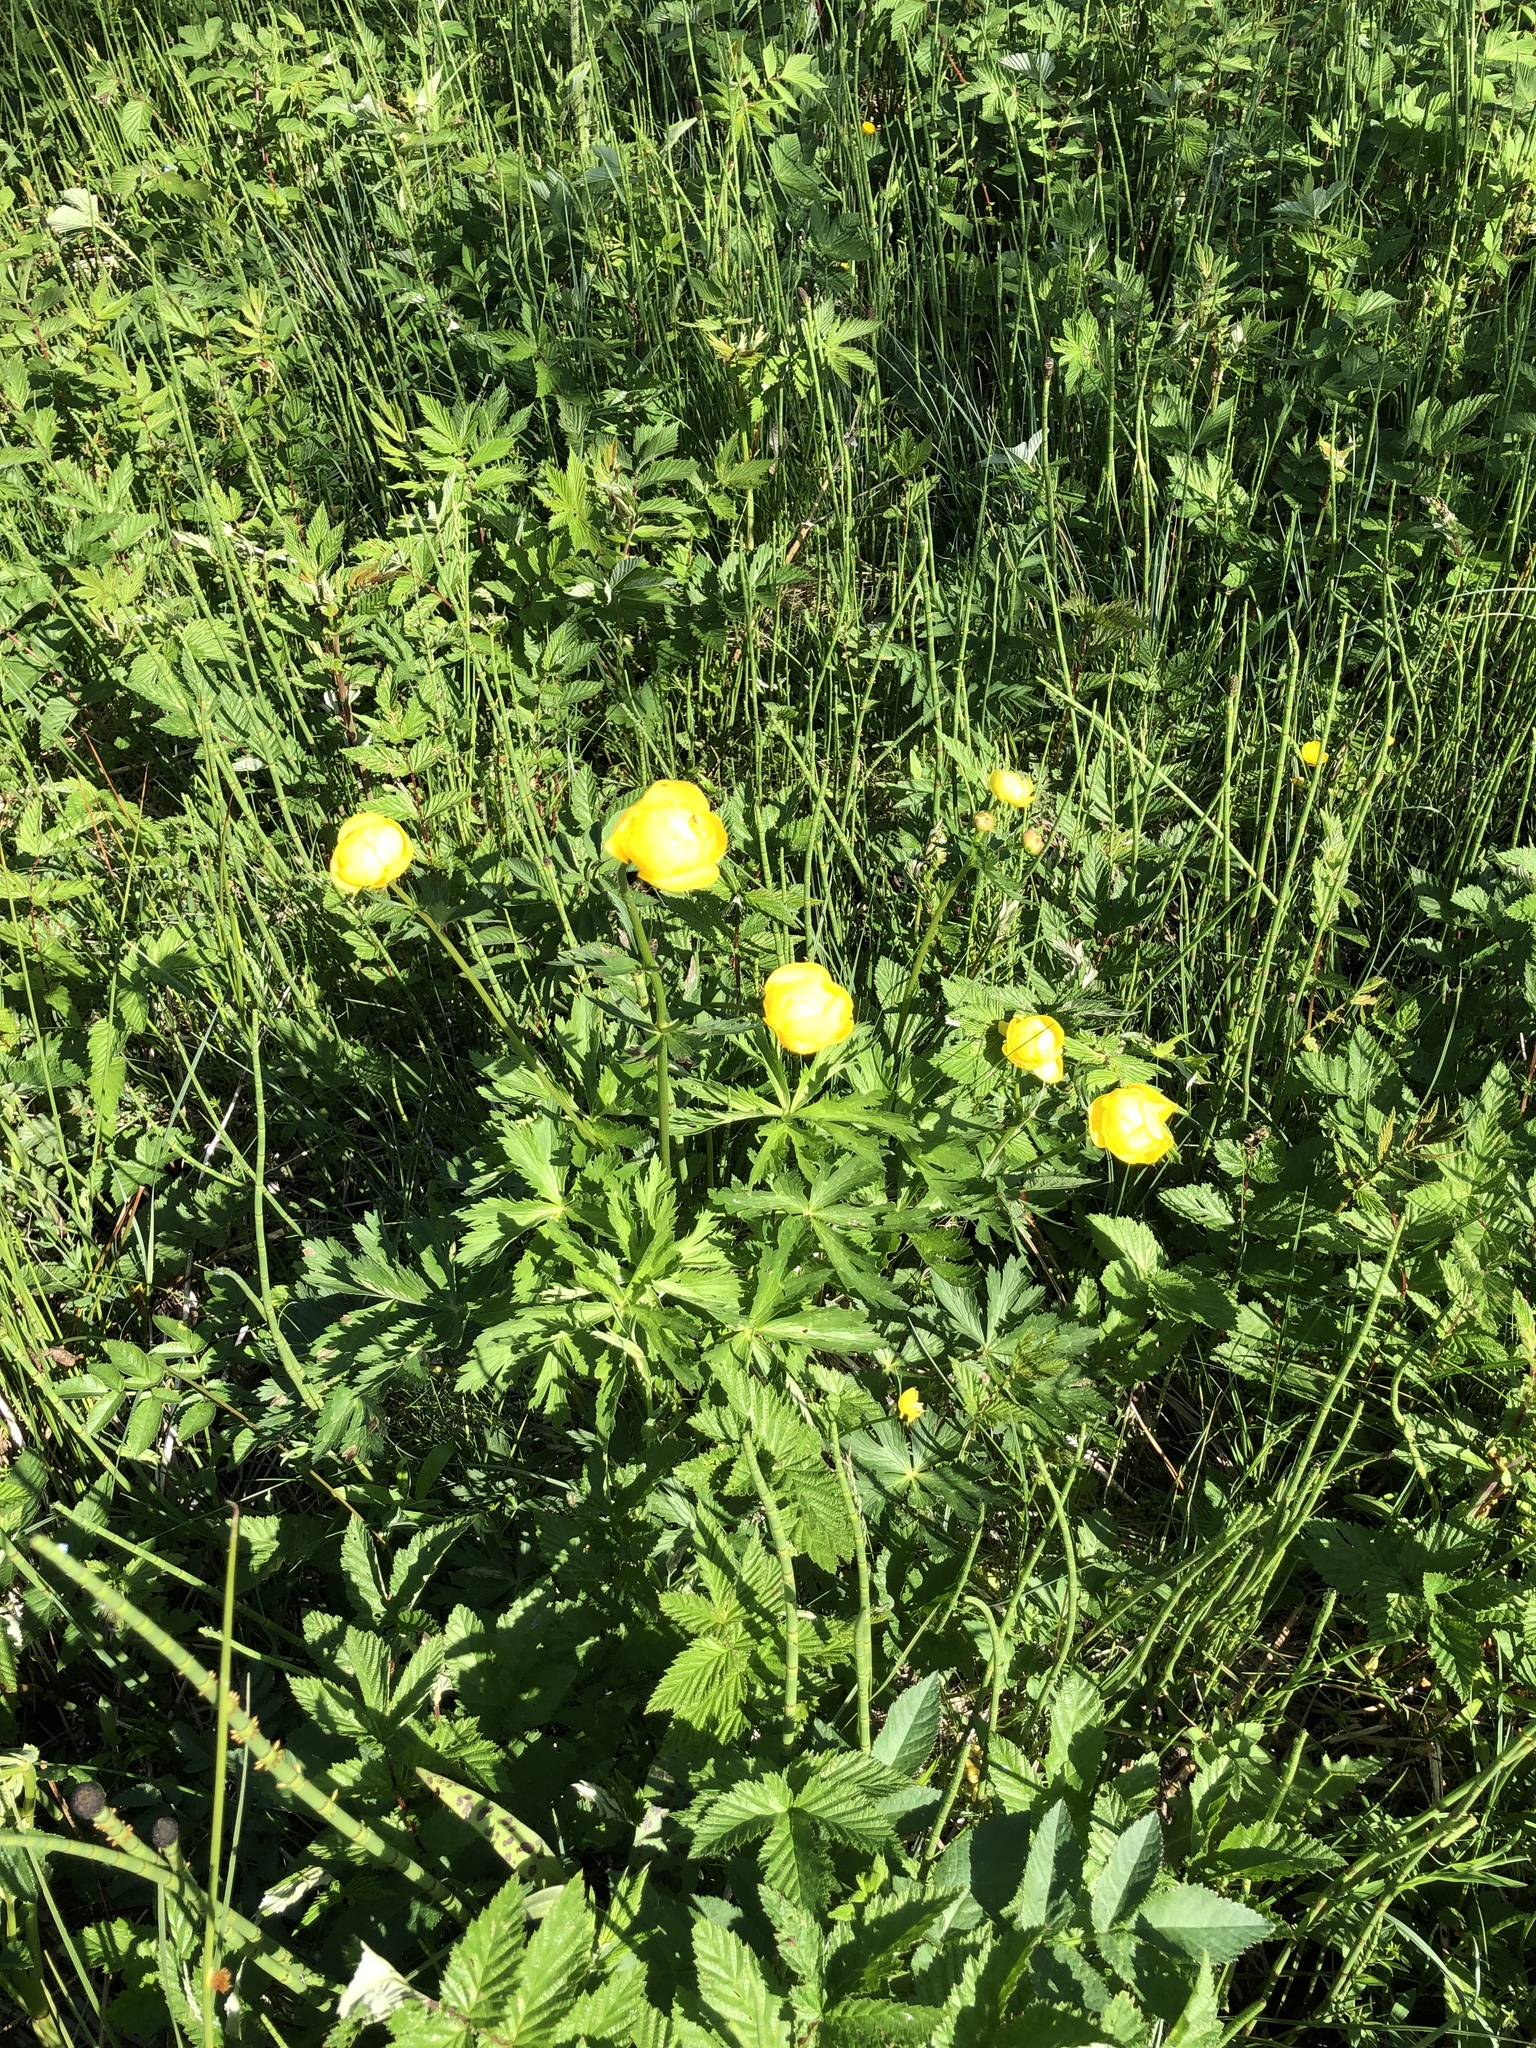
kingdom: Plantae
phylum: Tracheophyta
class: Magnoliopsida
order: Ranunculales
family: Ranunculaceae
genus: Trollius
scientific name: Trollius europaeus
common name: European globeflower
